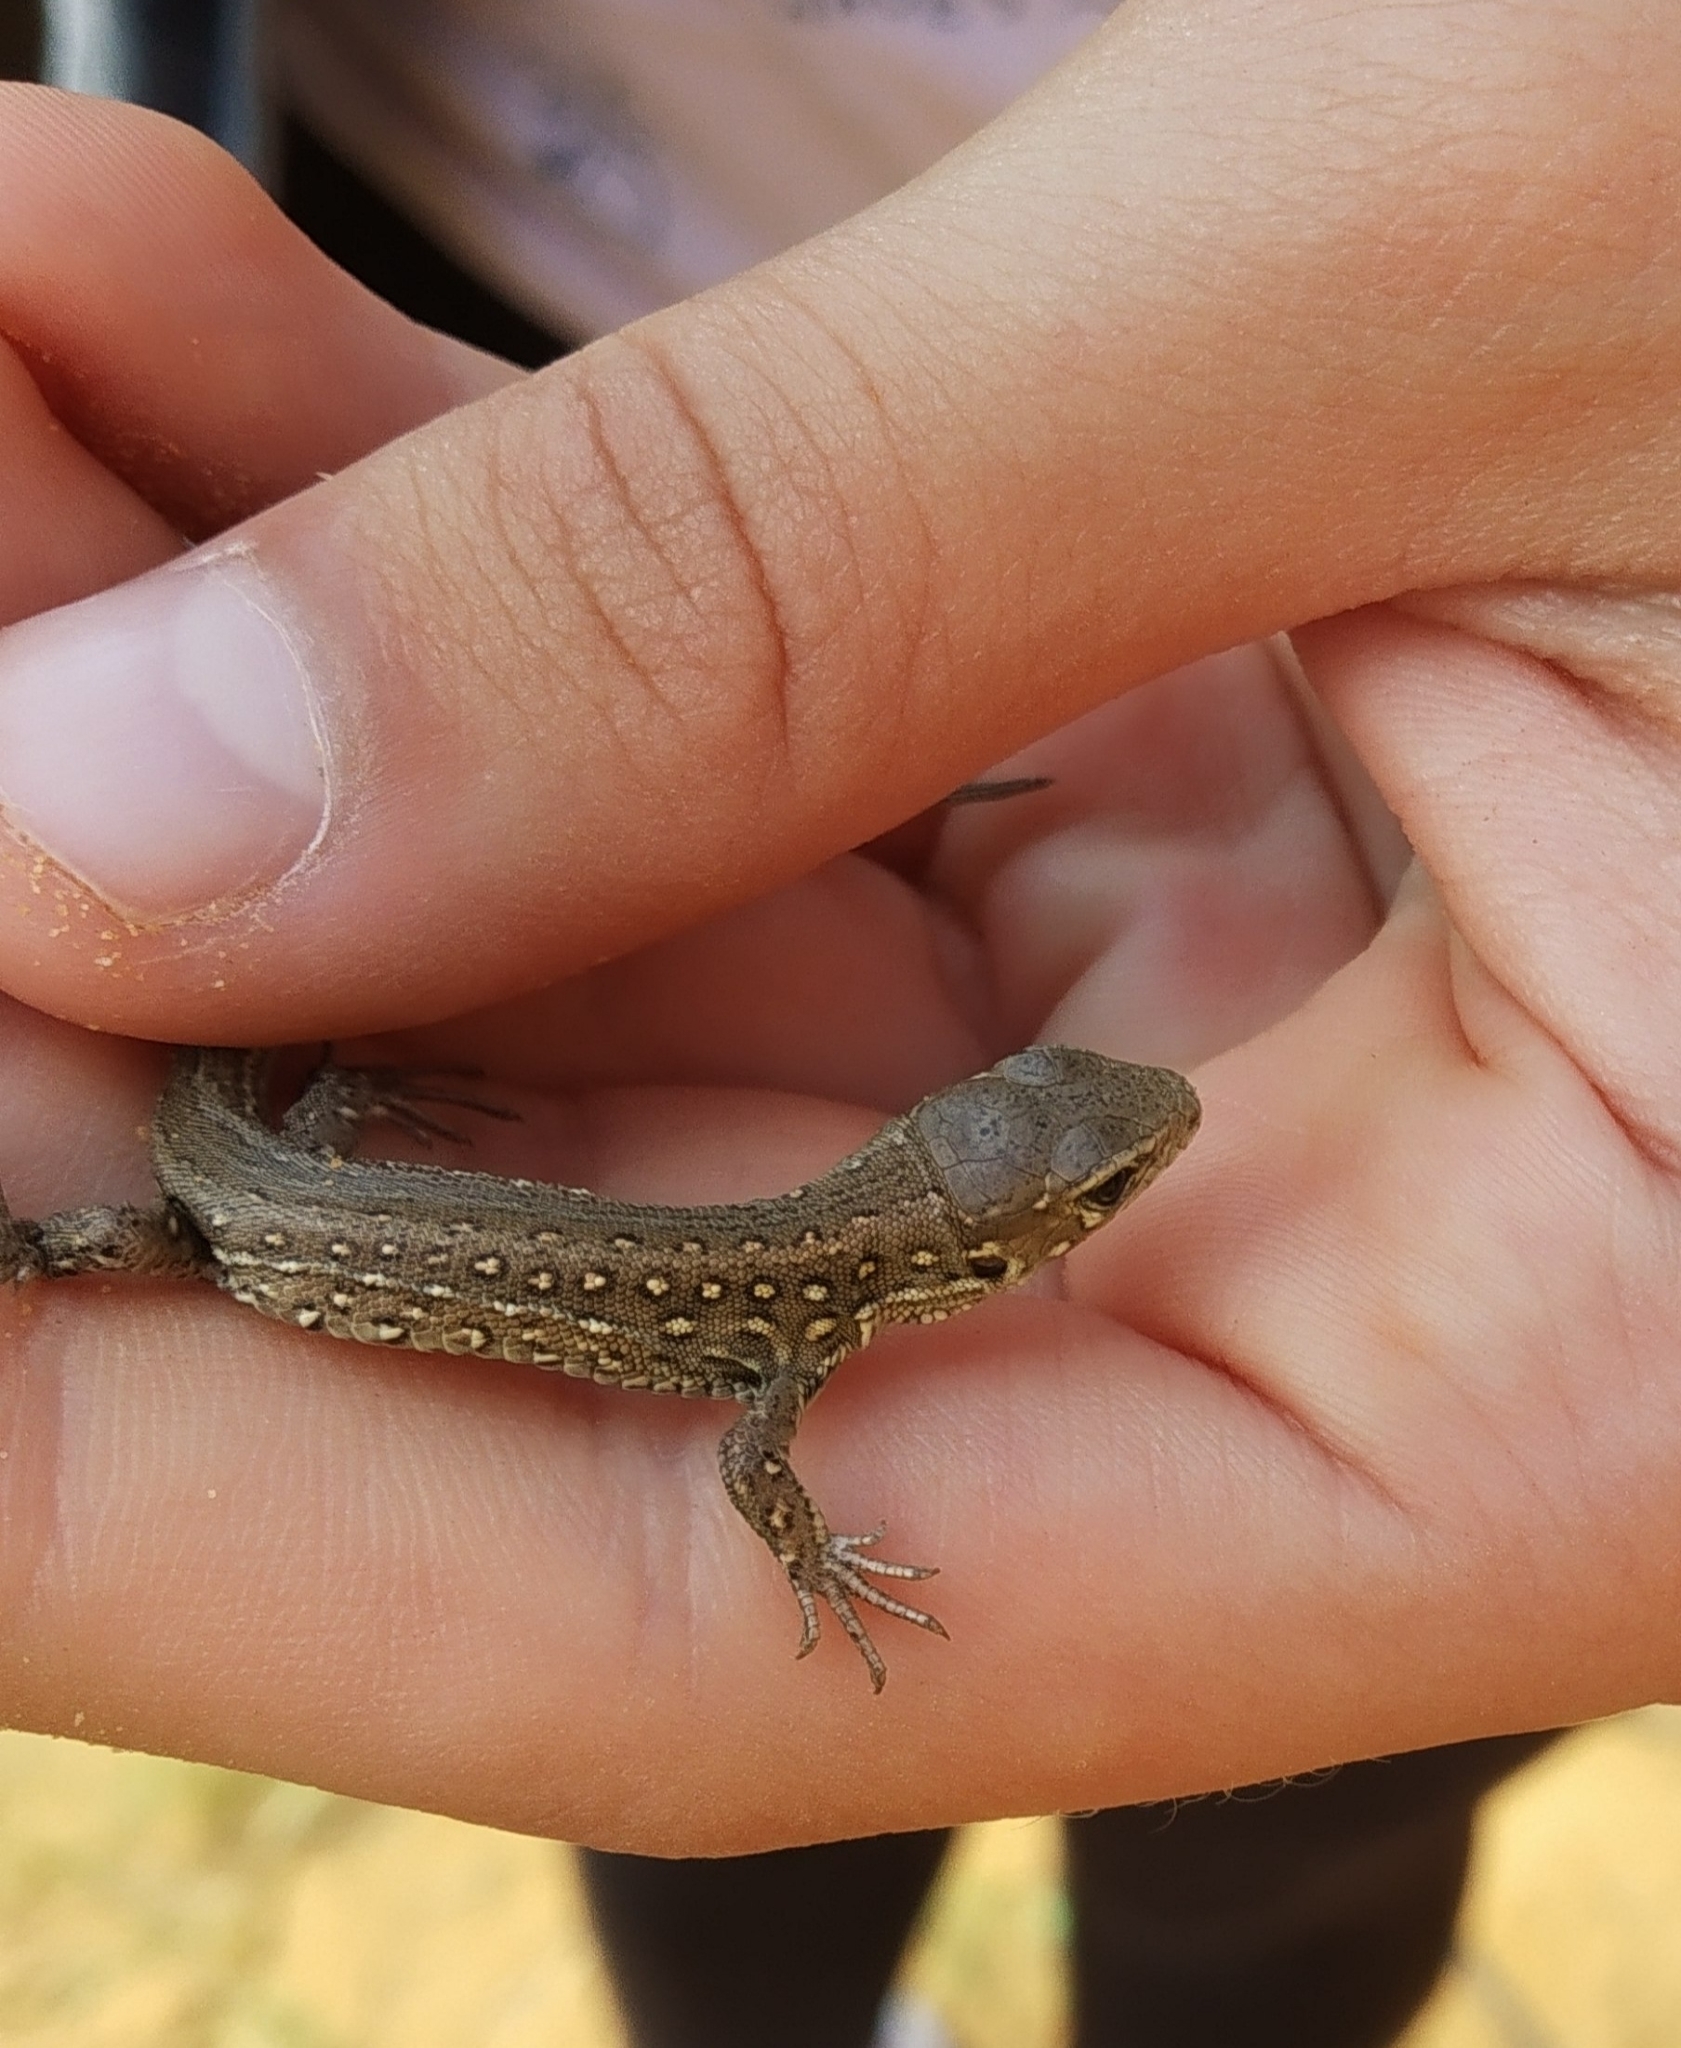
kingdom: Animalia
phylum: Chordata
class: Squamata
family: Lacertidae
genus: Lacerta
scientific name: Lacerta agilis
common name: Sand lizard
